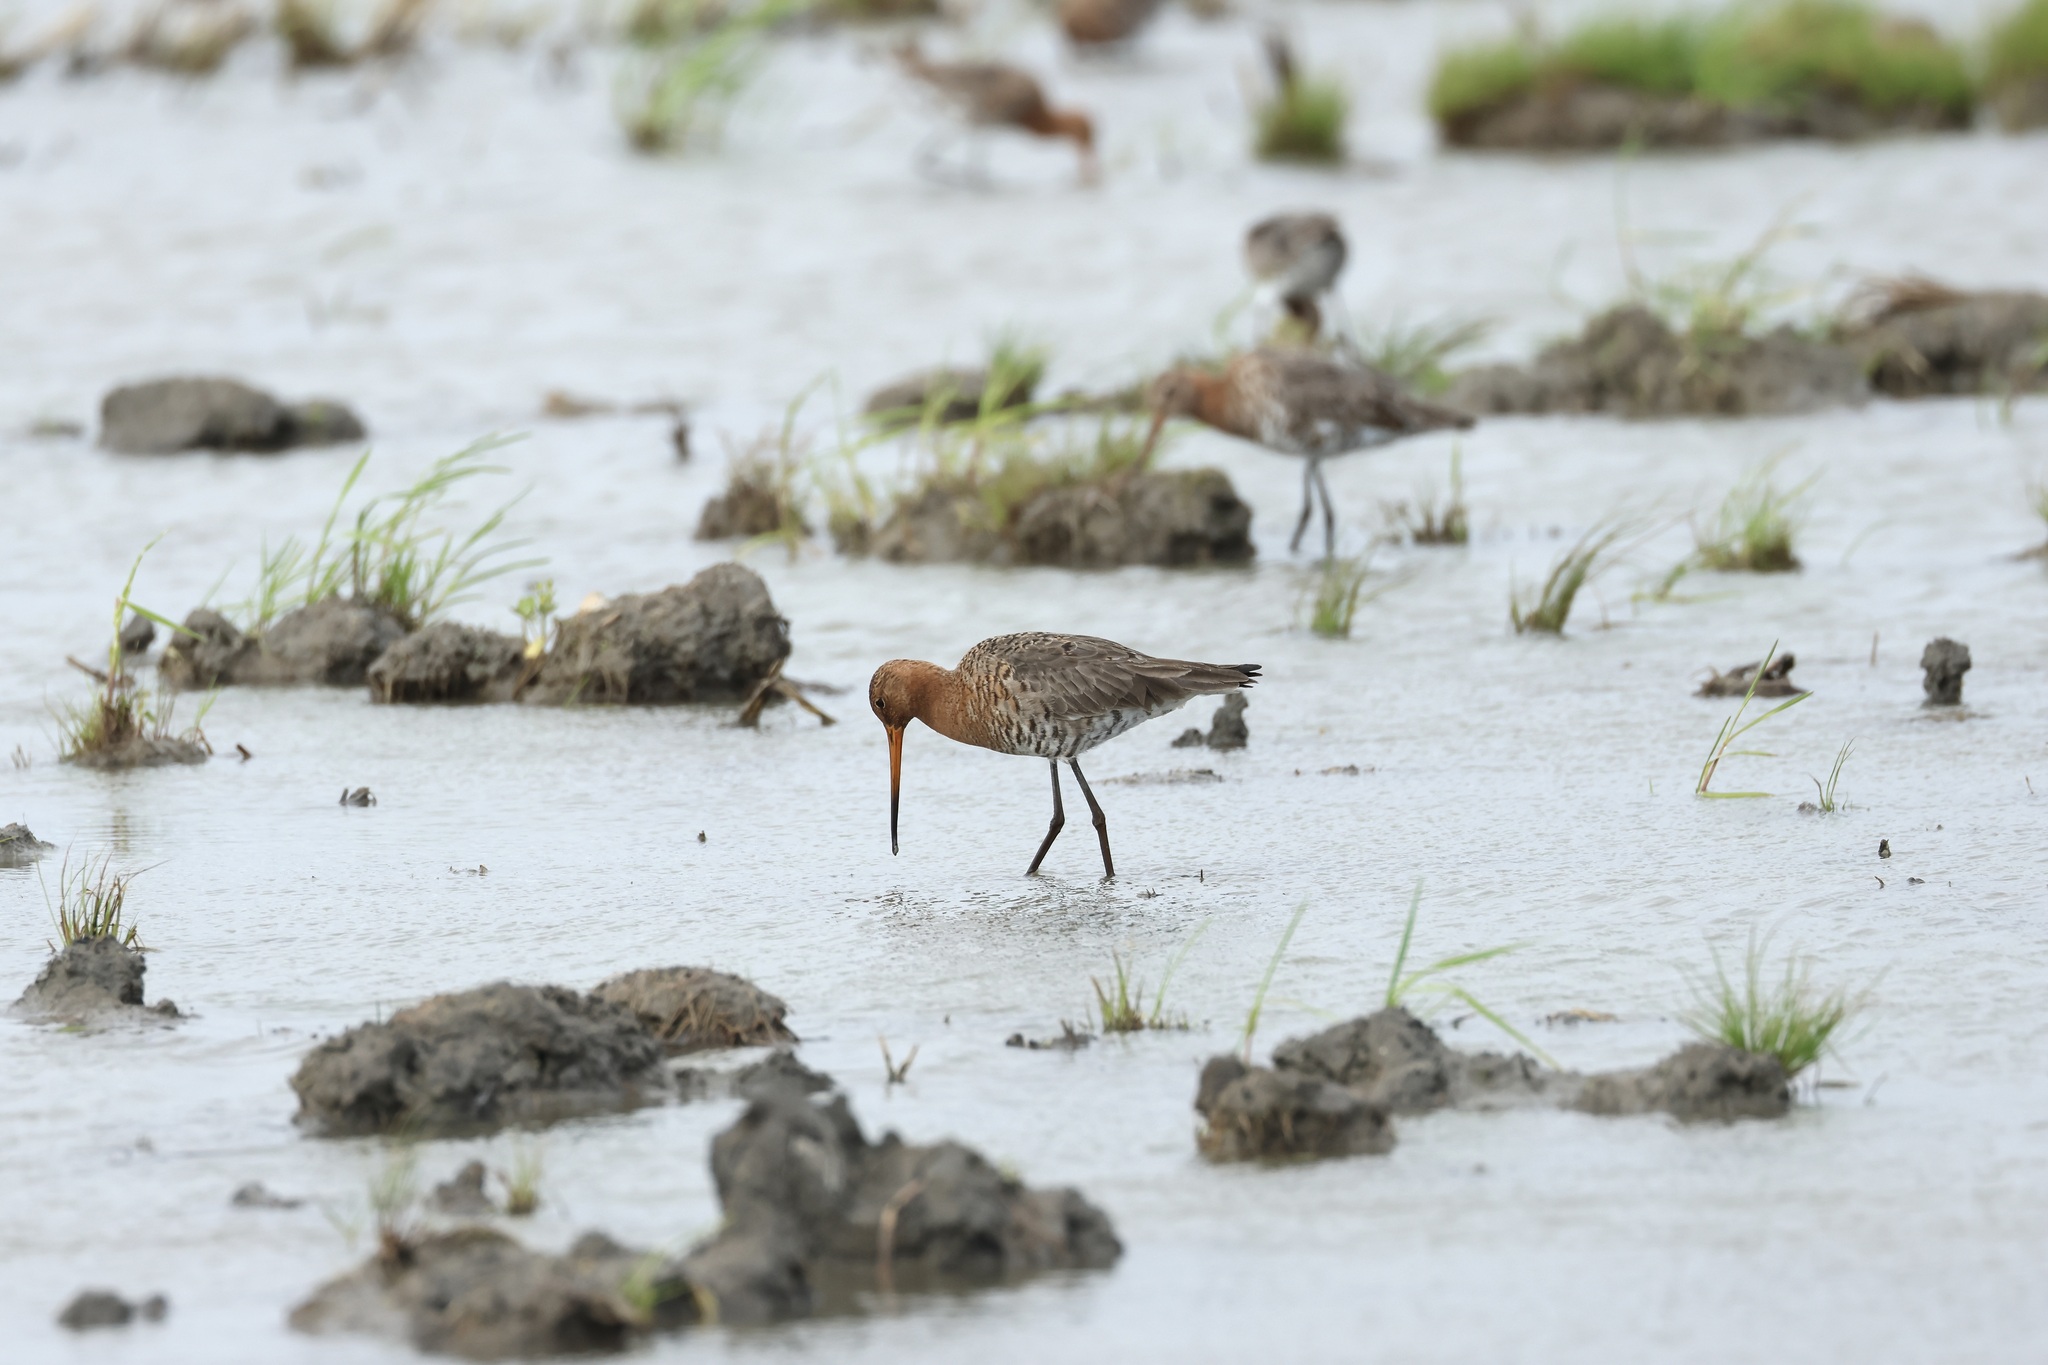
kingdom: Animalia
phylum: Chordata
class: Aves
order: Charadriiformes
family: Scolopacidae
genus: Limosa
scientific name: Limosa limosa
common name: Black-tailed godwit
